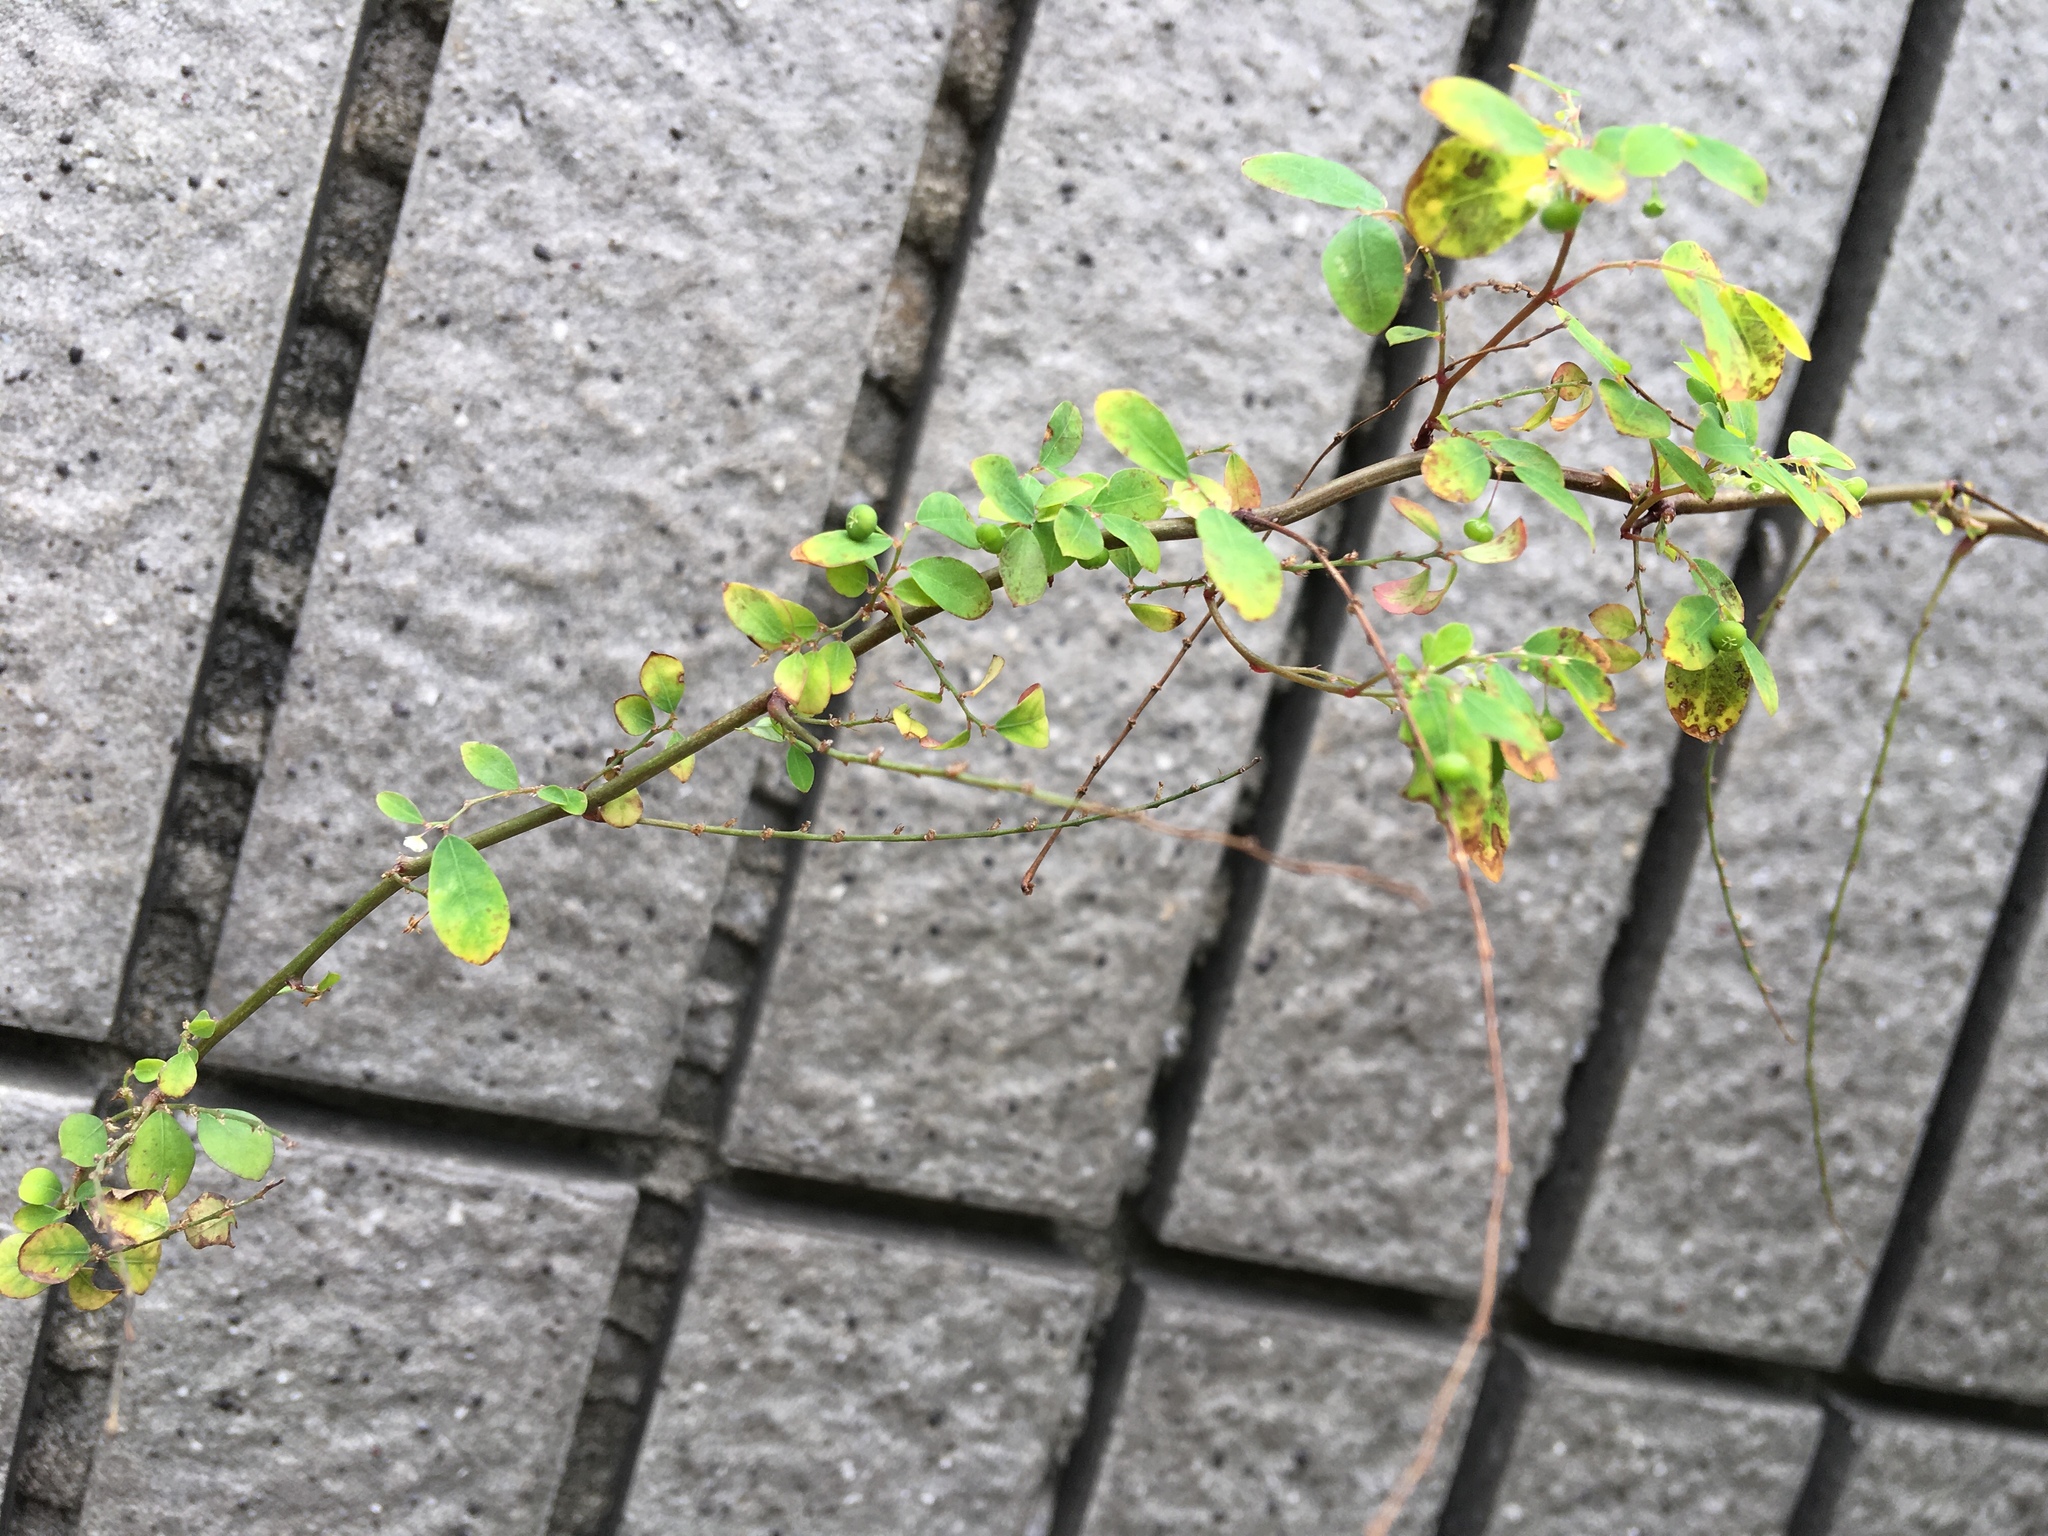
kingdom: Plantae
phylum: Tracheophyta
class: Magnoliopsida
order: Malpighiales
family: Phyllanthaceae
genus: Phyllanthus
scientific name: Phyllanthus urinaria
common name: Chamber bitter
